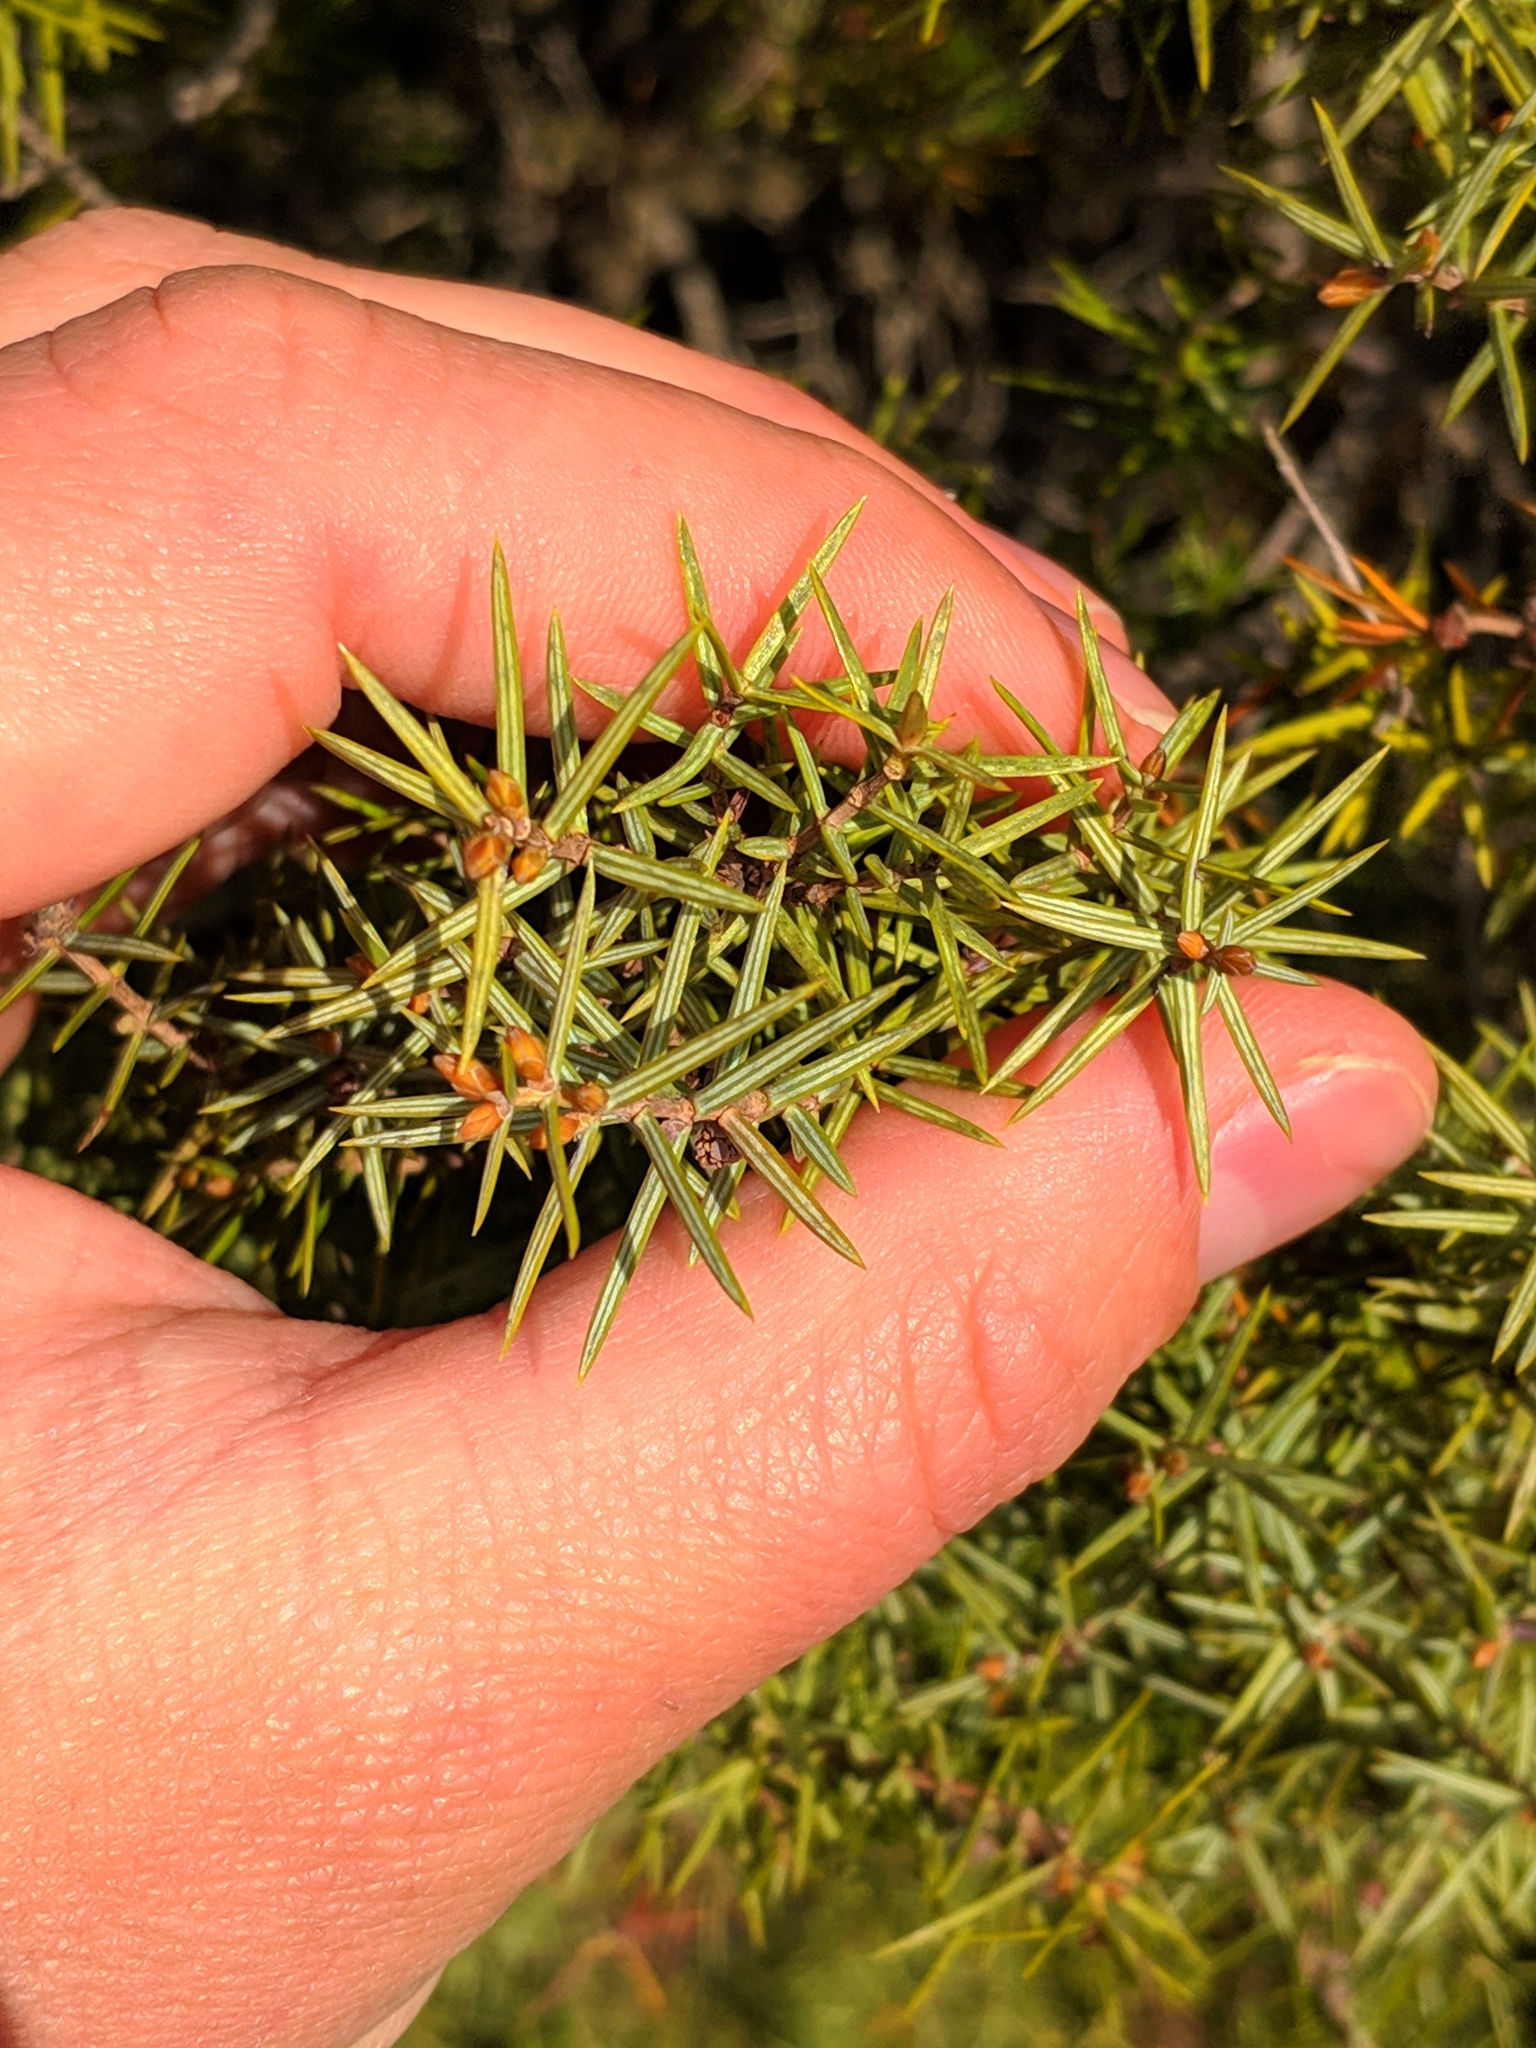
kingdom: Plantae
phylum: Tracheophyta
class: Pinopsida
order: Pinales
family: Cupressaceae
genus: Juniperus
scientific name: Juniperus oxycedrus
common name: Prickly juniper
